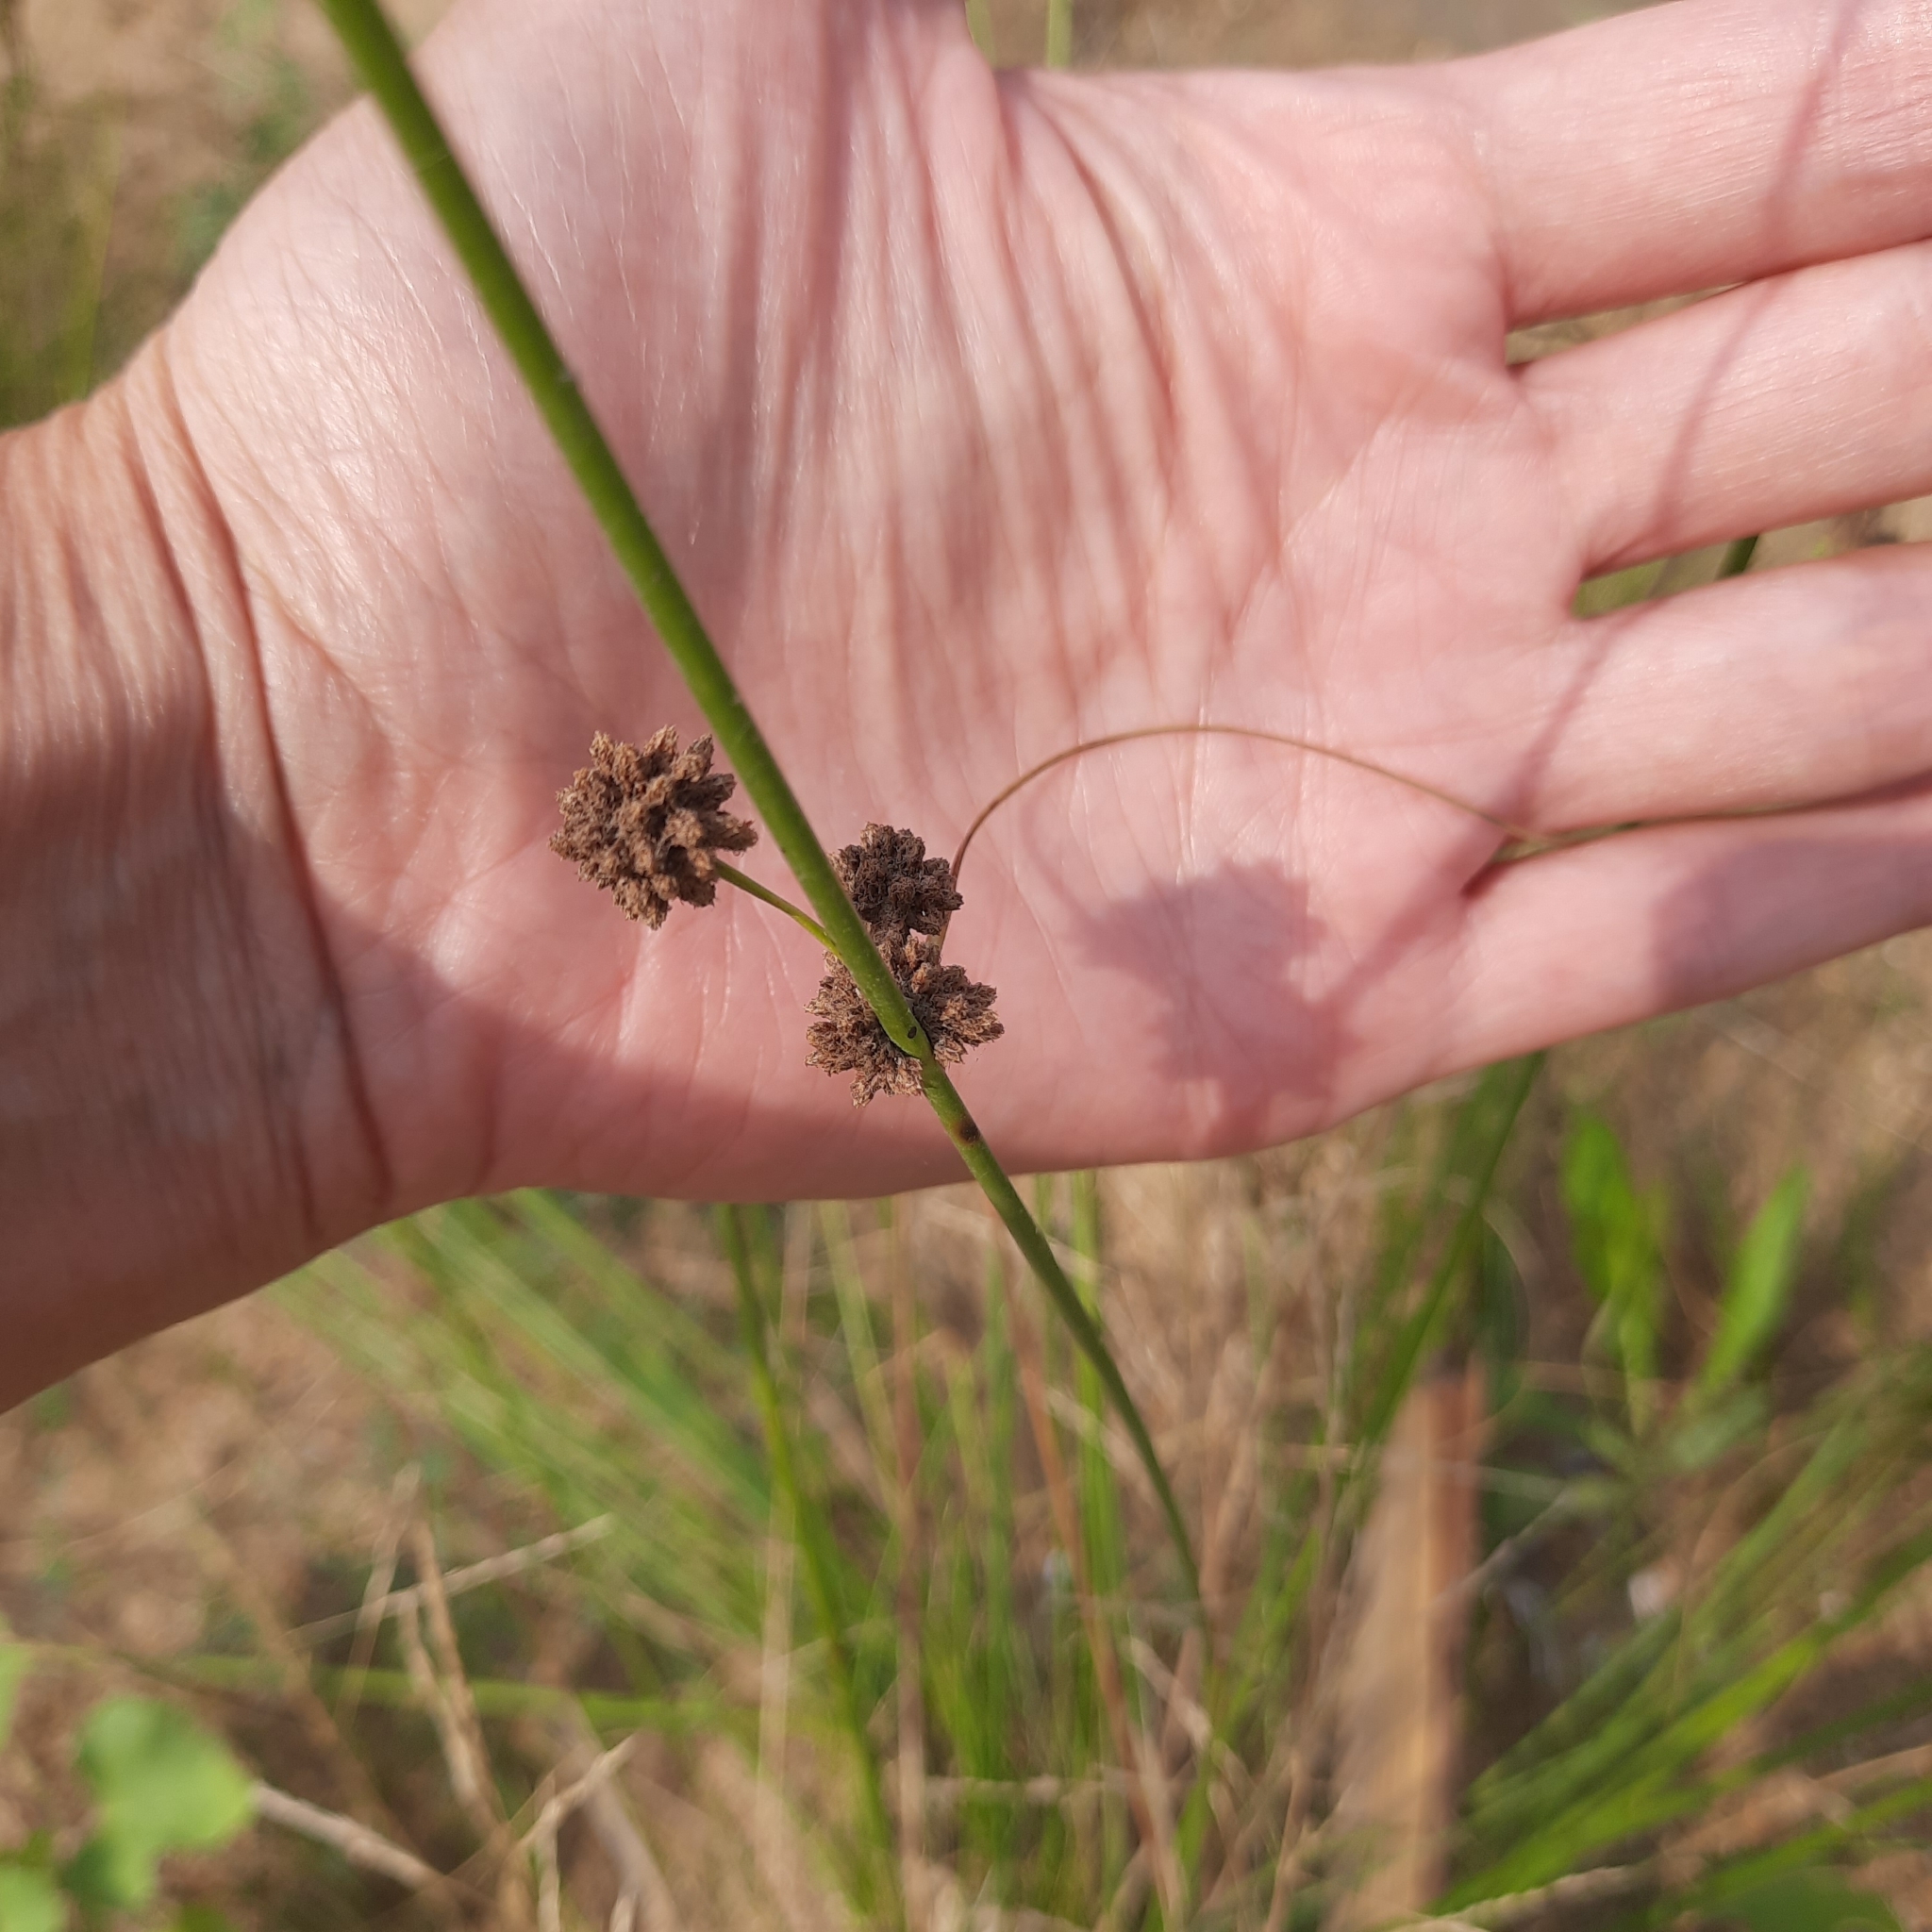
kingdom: Plantae
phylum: Tracheophyta
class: Liliopsida
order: Poales
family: Cyperaceae
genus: Scirpoides
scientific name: Scirpoides holoschoenus
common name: Round-headed club-rush
